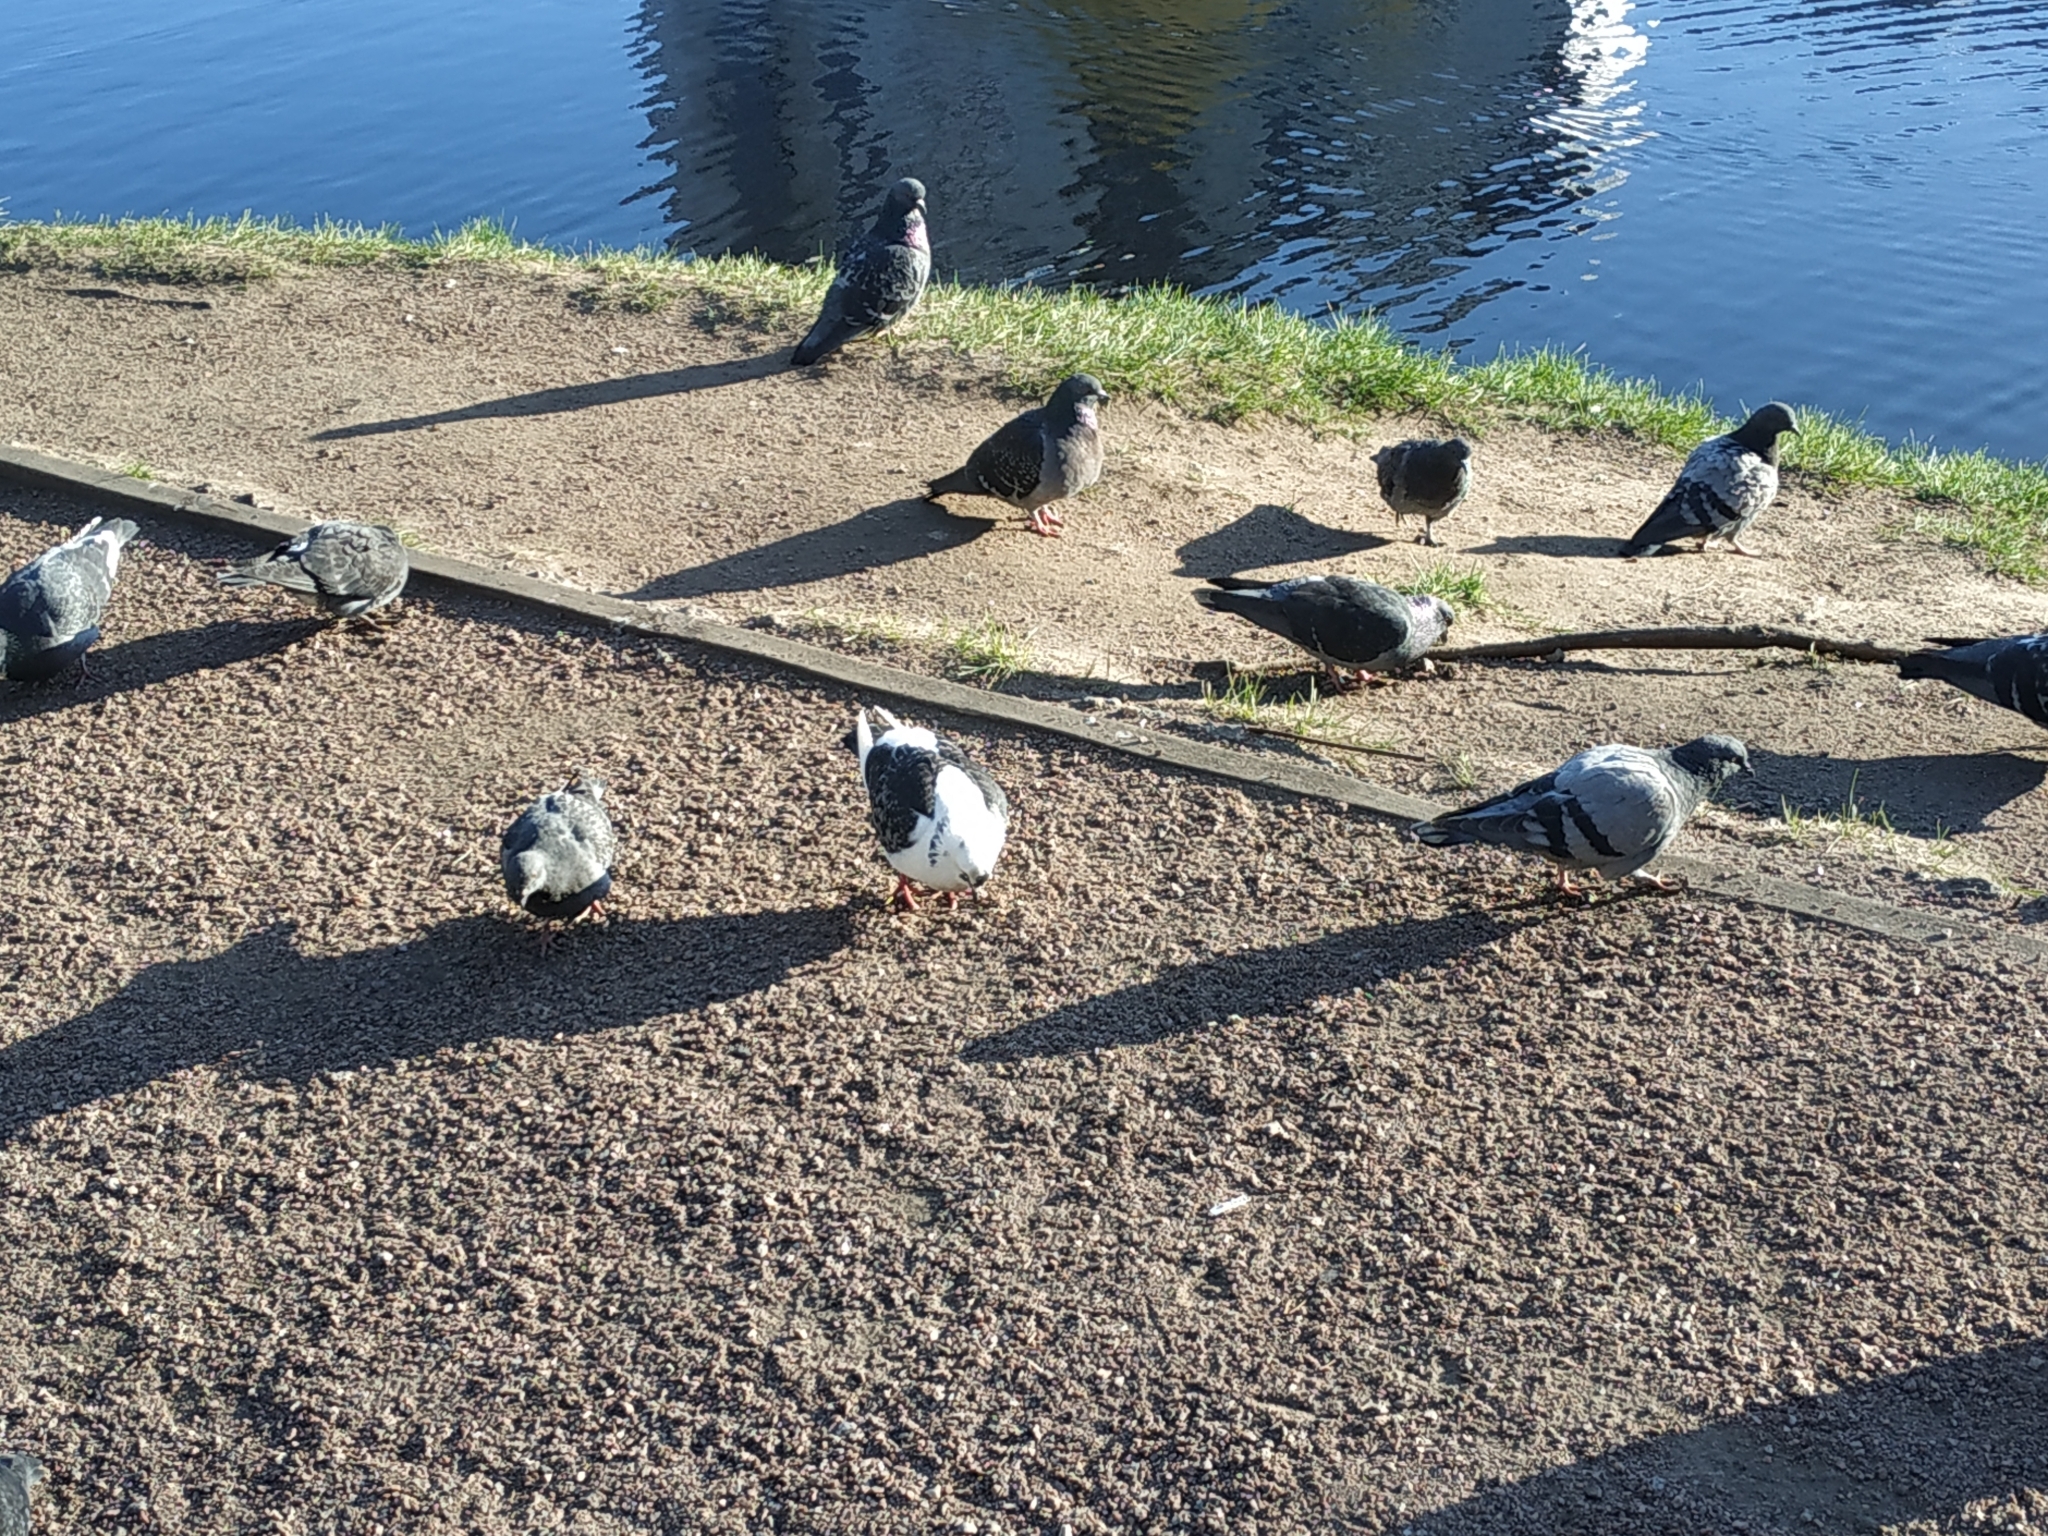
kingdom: Animalia
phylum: Chordata
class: Aves
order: Columbiformes
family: Columbidae
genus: Columba
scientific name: Columba livia
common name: Rock pigeon
